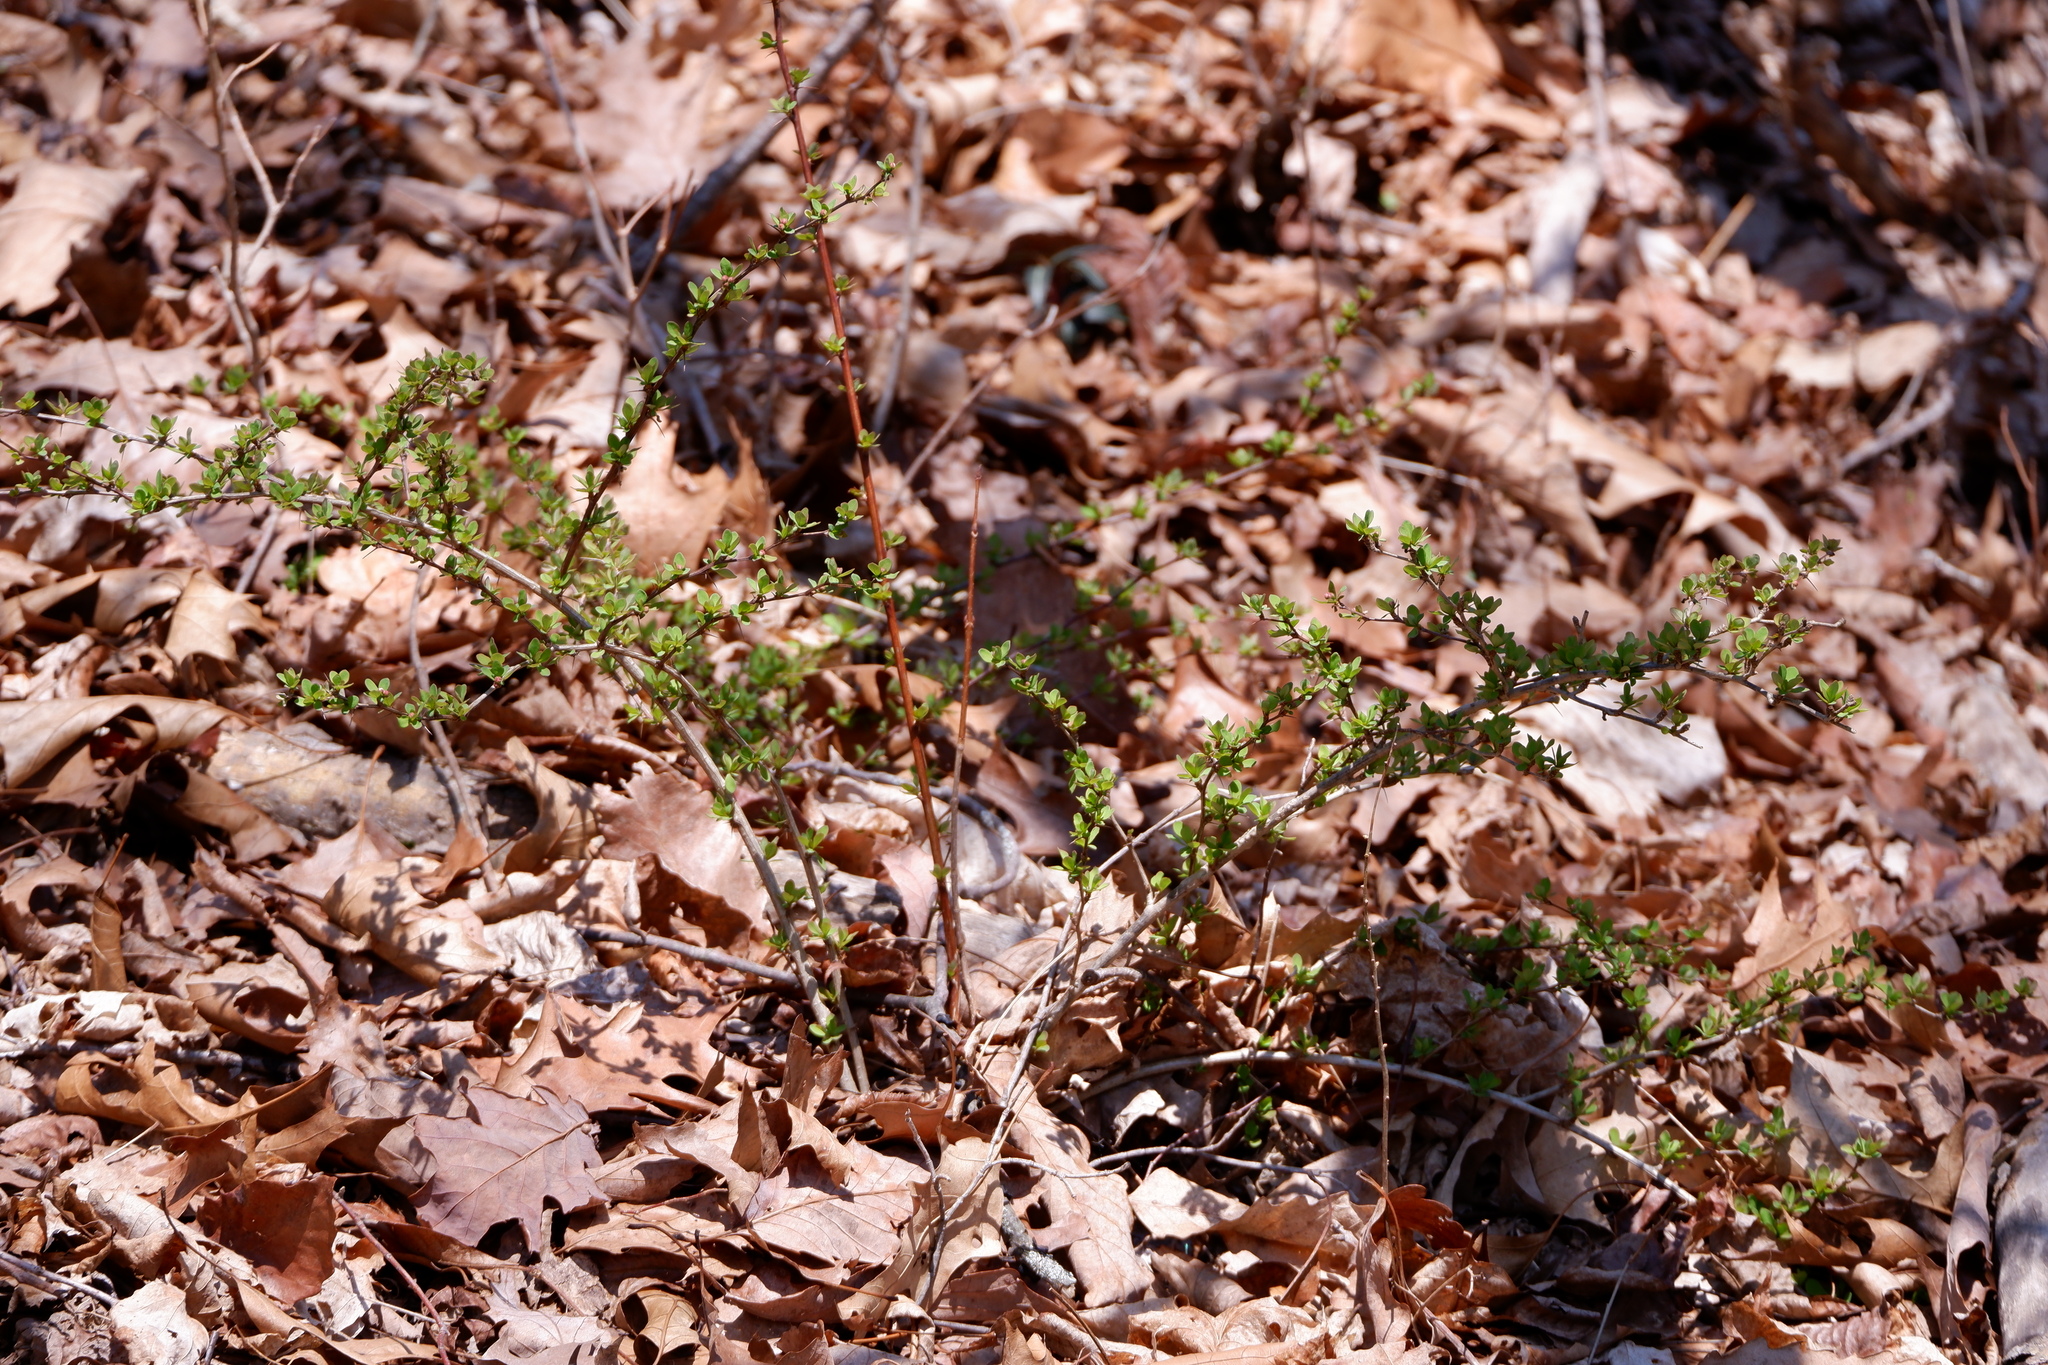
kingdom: Plantae
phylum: Tracheophyta
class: Magnoliopsida
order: Ranunculales
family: Berberidaceae
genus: Berberis
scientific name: Berberis thunbergii
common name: Japanese barberry
